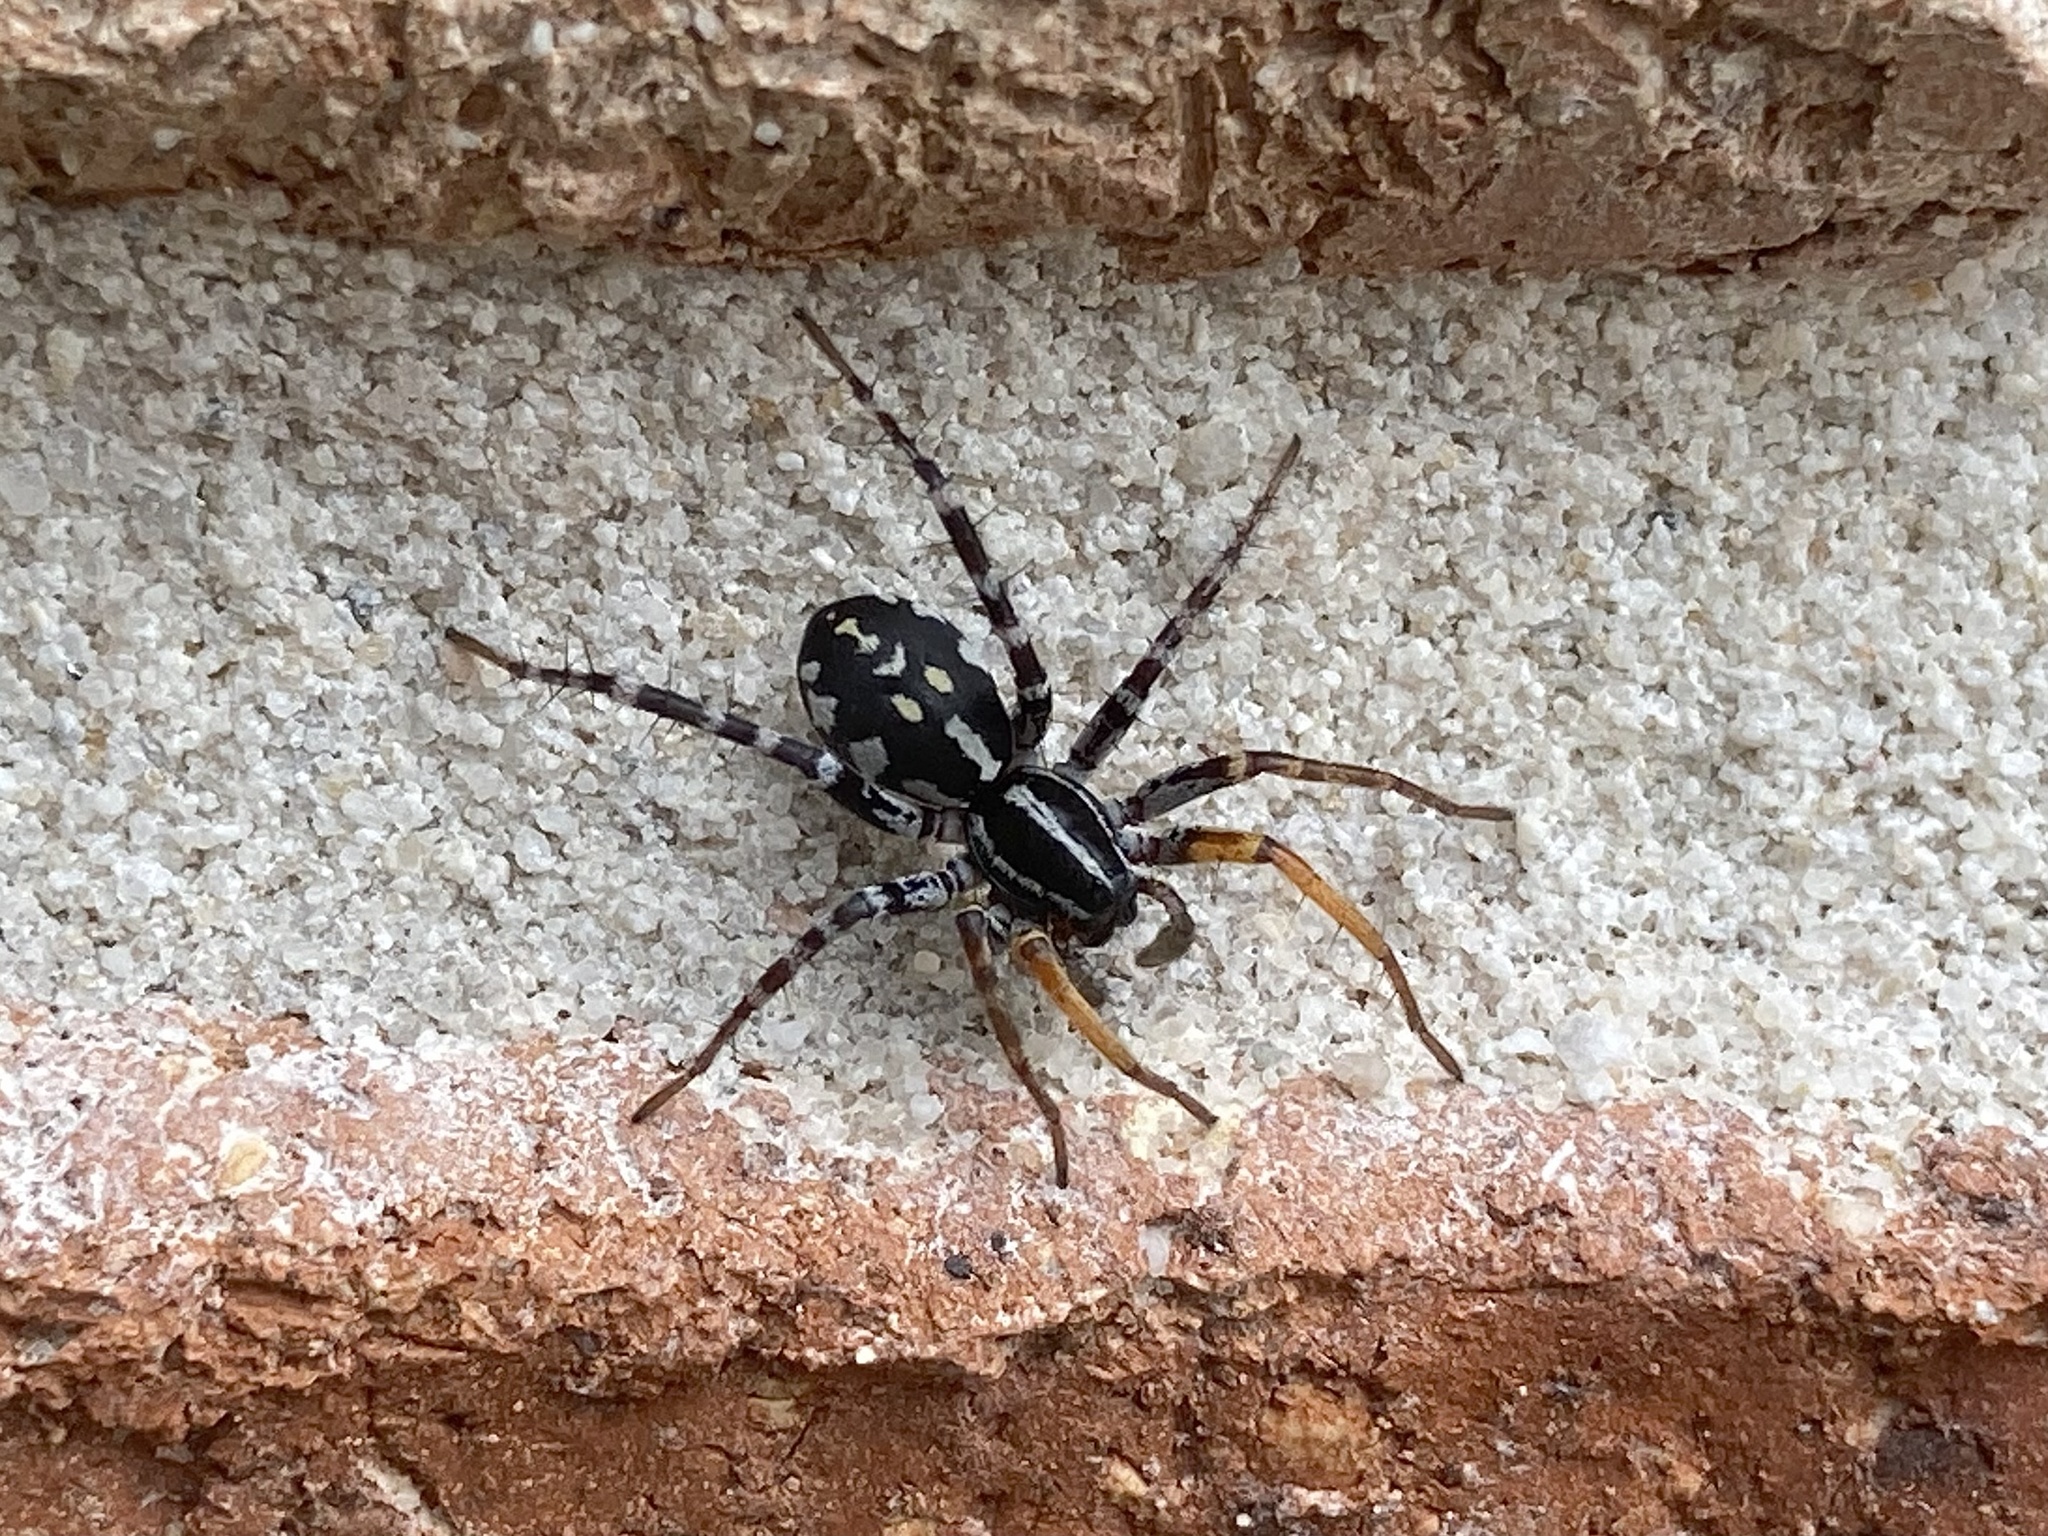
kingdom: Animalia
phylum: Arthropoda
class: Arachnida
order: Araneae
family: Corinnidae
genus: Nyssus
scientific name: Nyssus coloripes
